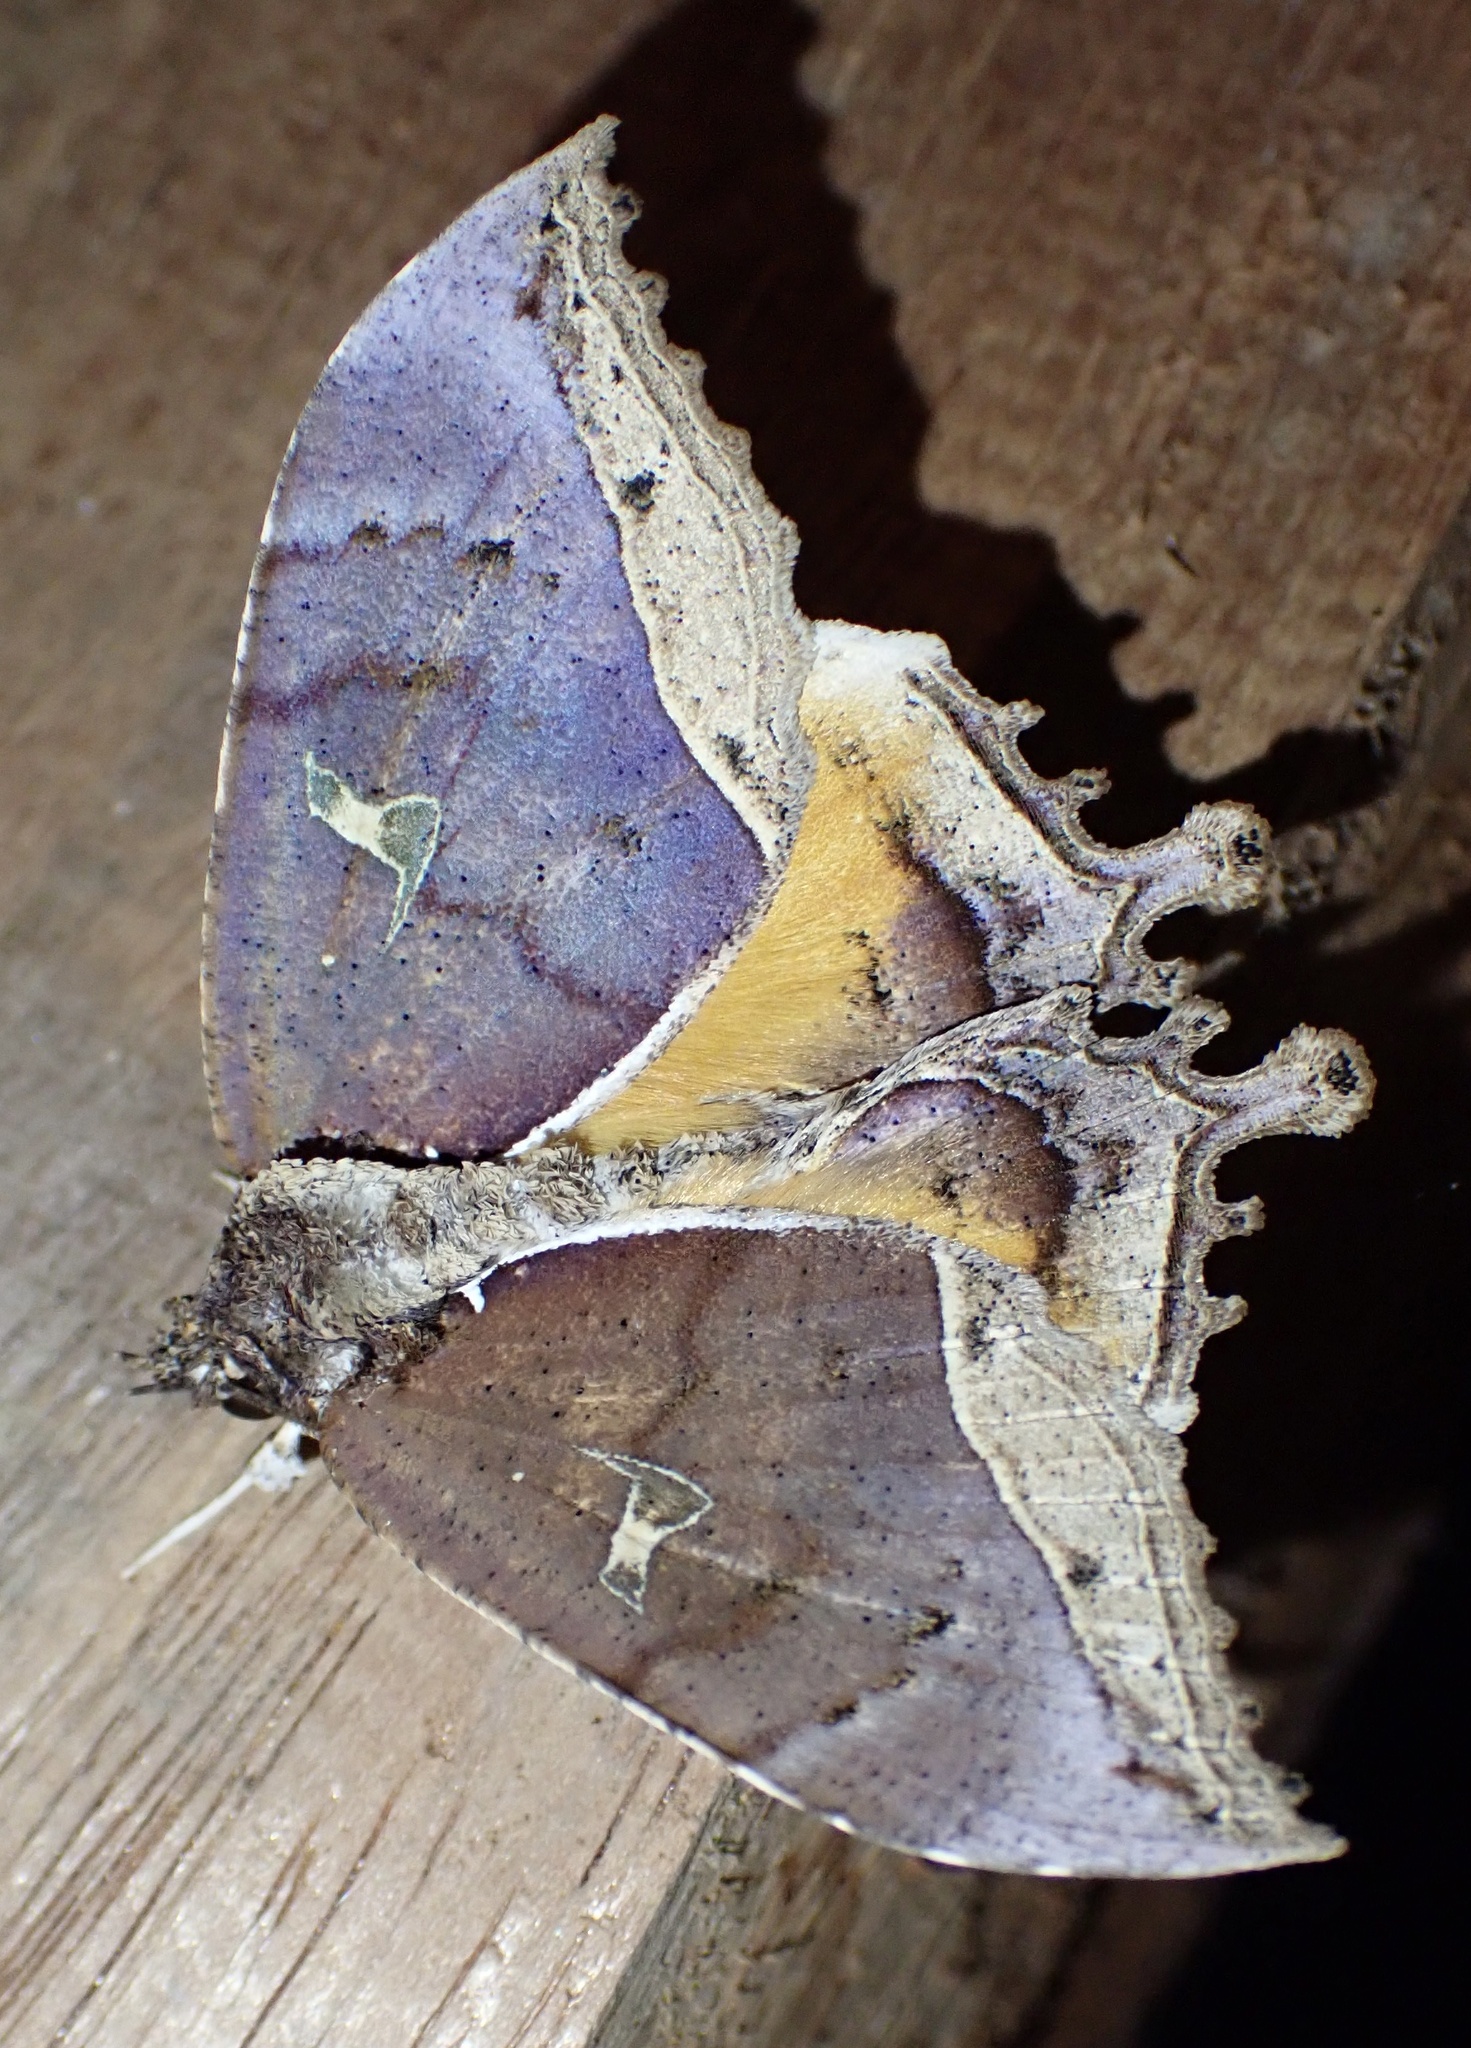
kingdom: Animalia
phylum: Arthropoda
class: Insecta
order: Lepidoptera
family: Erebidae
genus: Pterocyclophora
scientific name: Pterocyclophora huntei
